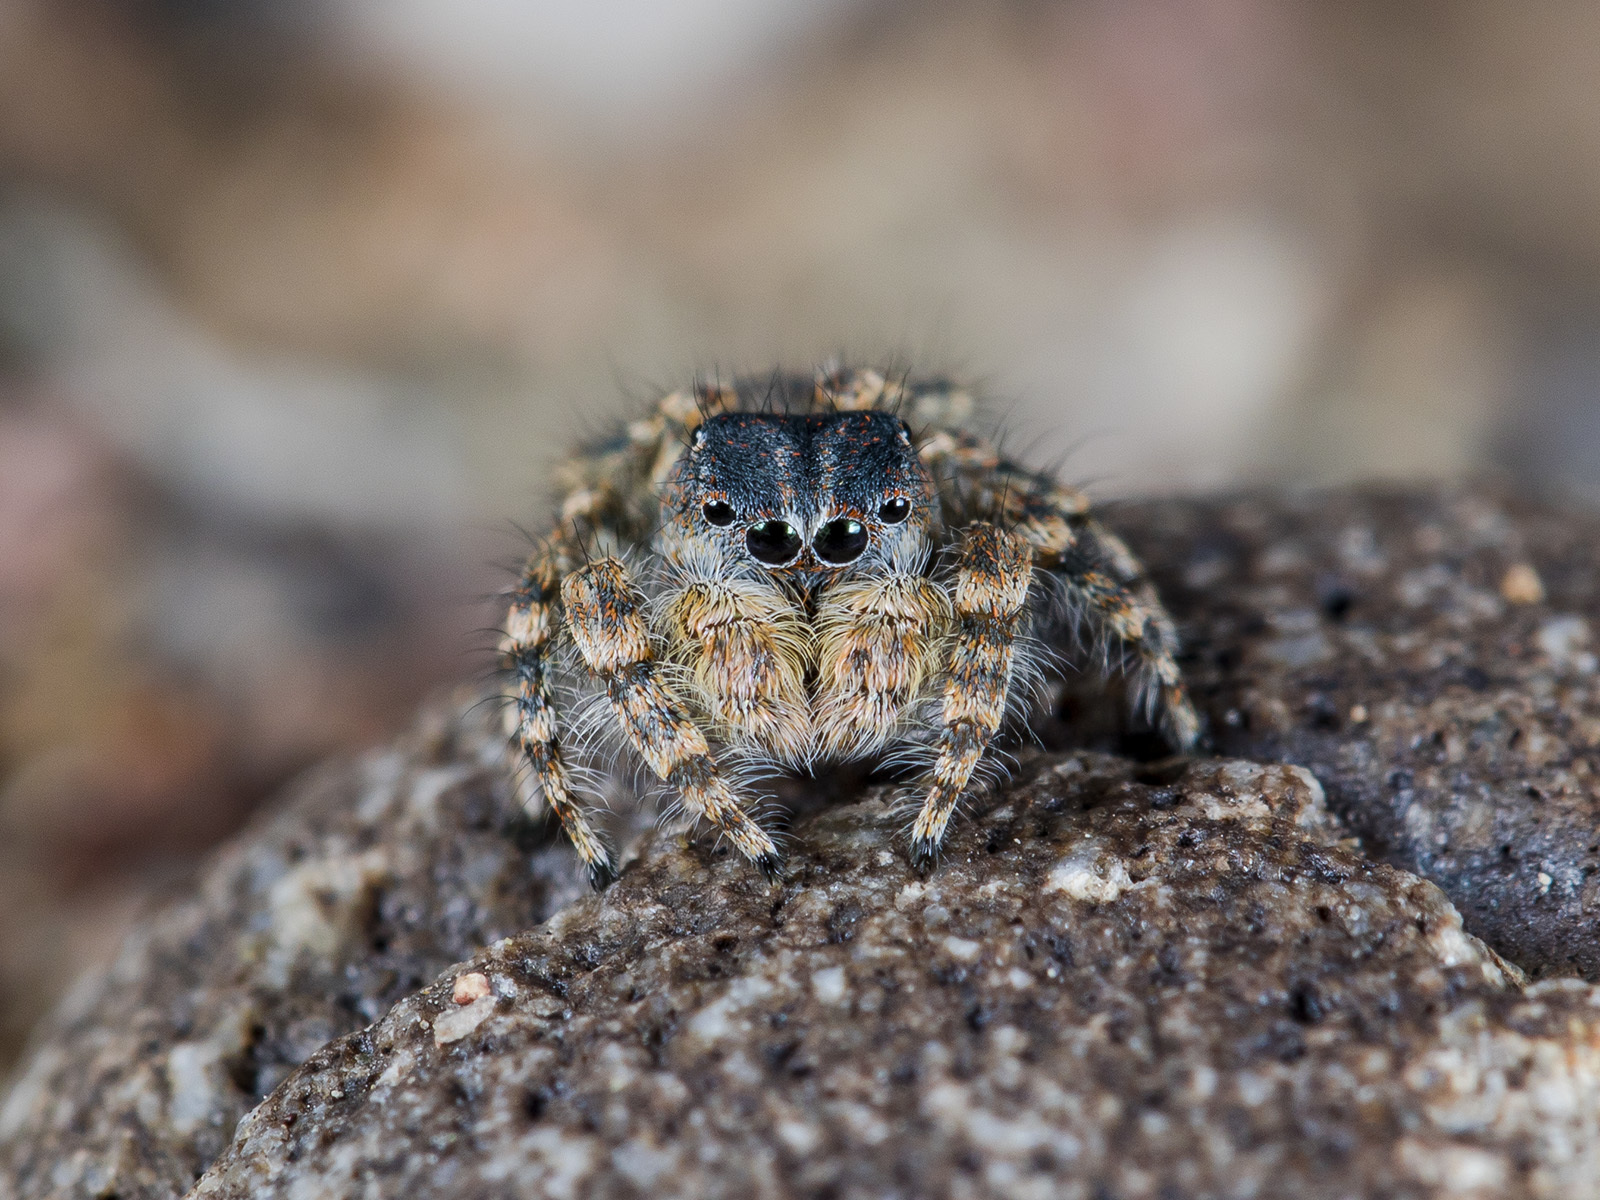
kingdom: Animalia
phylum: Arthropoda
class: Arachnida
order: Araneae
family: Salticidae
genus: Yllenus
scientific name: Yllenus zyuzini
